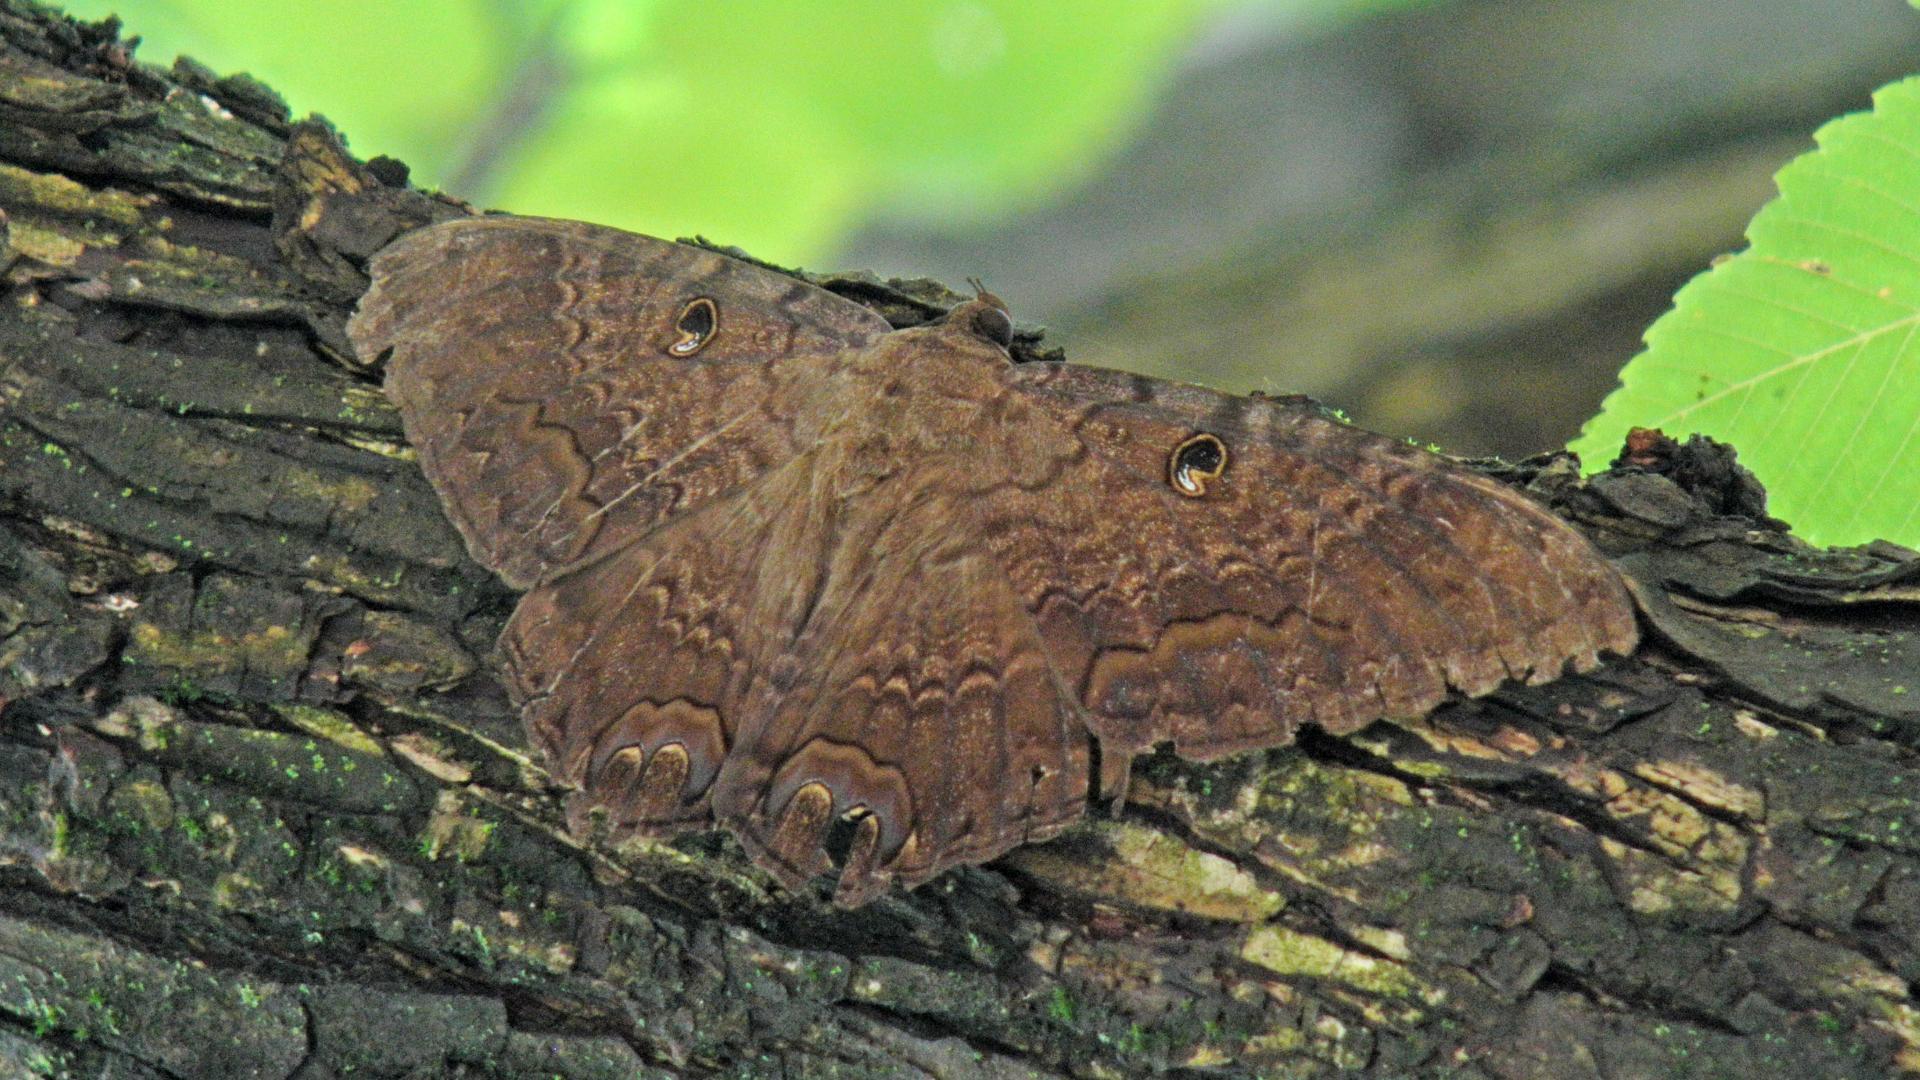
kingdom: Animalia
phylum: Arthropoda
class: Insecta
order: Lepidoptera
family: Erebidae
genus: Ascalapha
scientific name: Ascalapha odorata
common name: Black witch
